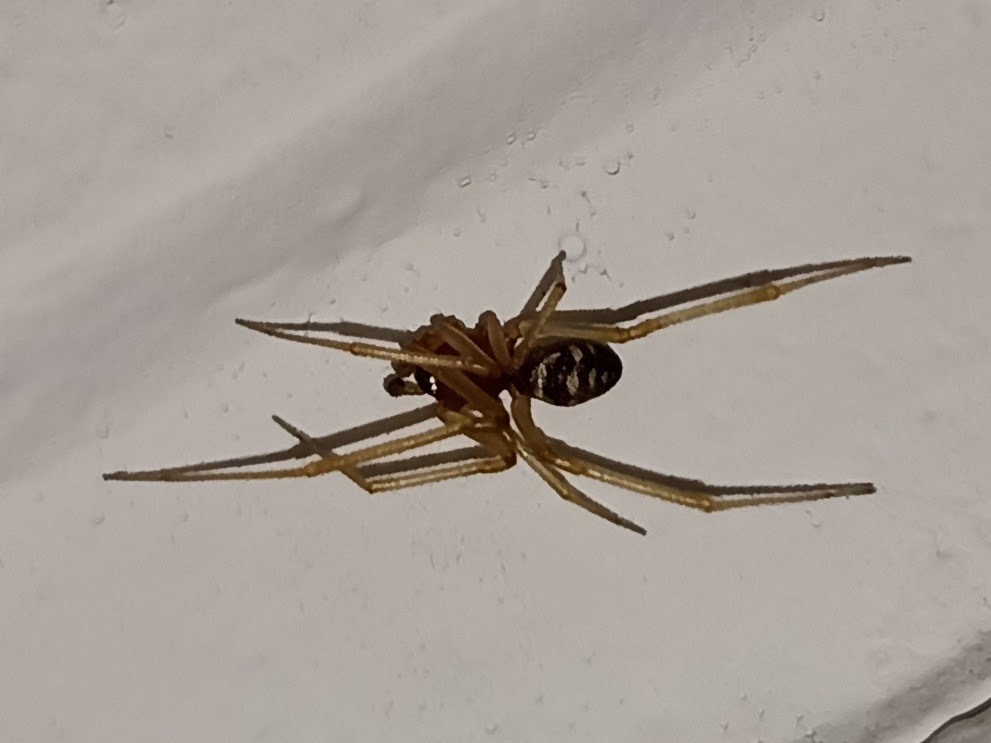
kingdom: Animalia
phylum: Arthropoda
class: Arachnida
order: Araneae
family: Theridiidae
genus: Steatoda
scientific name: Steatoda grossa
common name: False black widow
